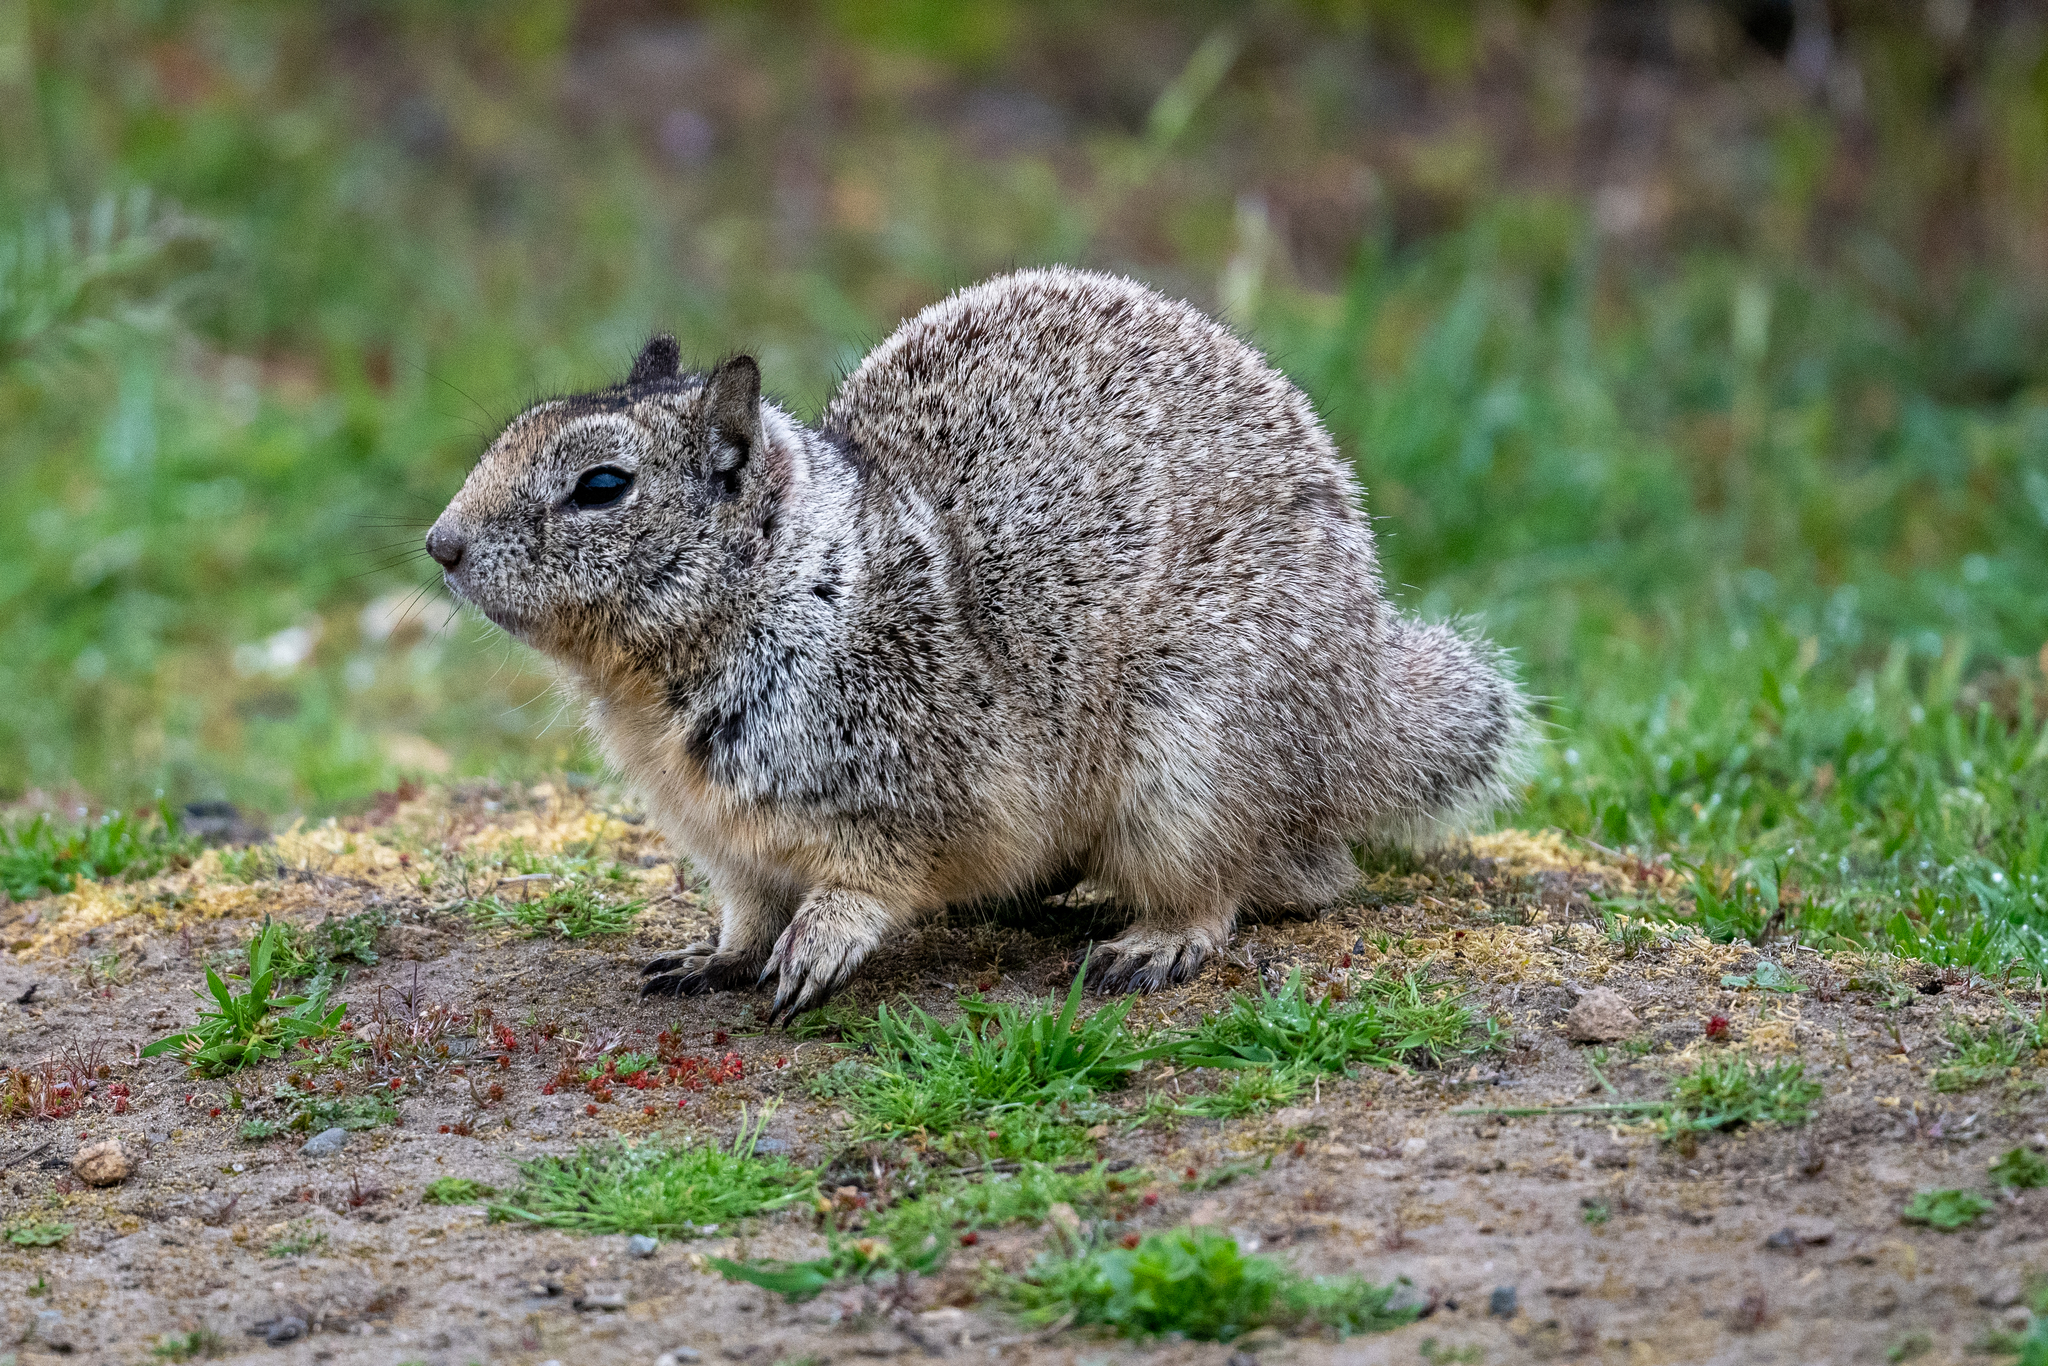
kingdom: Animalia
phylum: Chordata
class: Mammalia
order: Rodentia
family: Sciuridae
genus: Otospermophilus
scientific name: Otospermophilus beecheyi
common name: California ground squirrel
